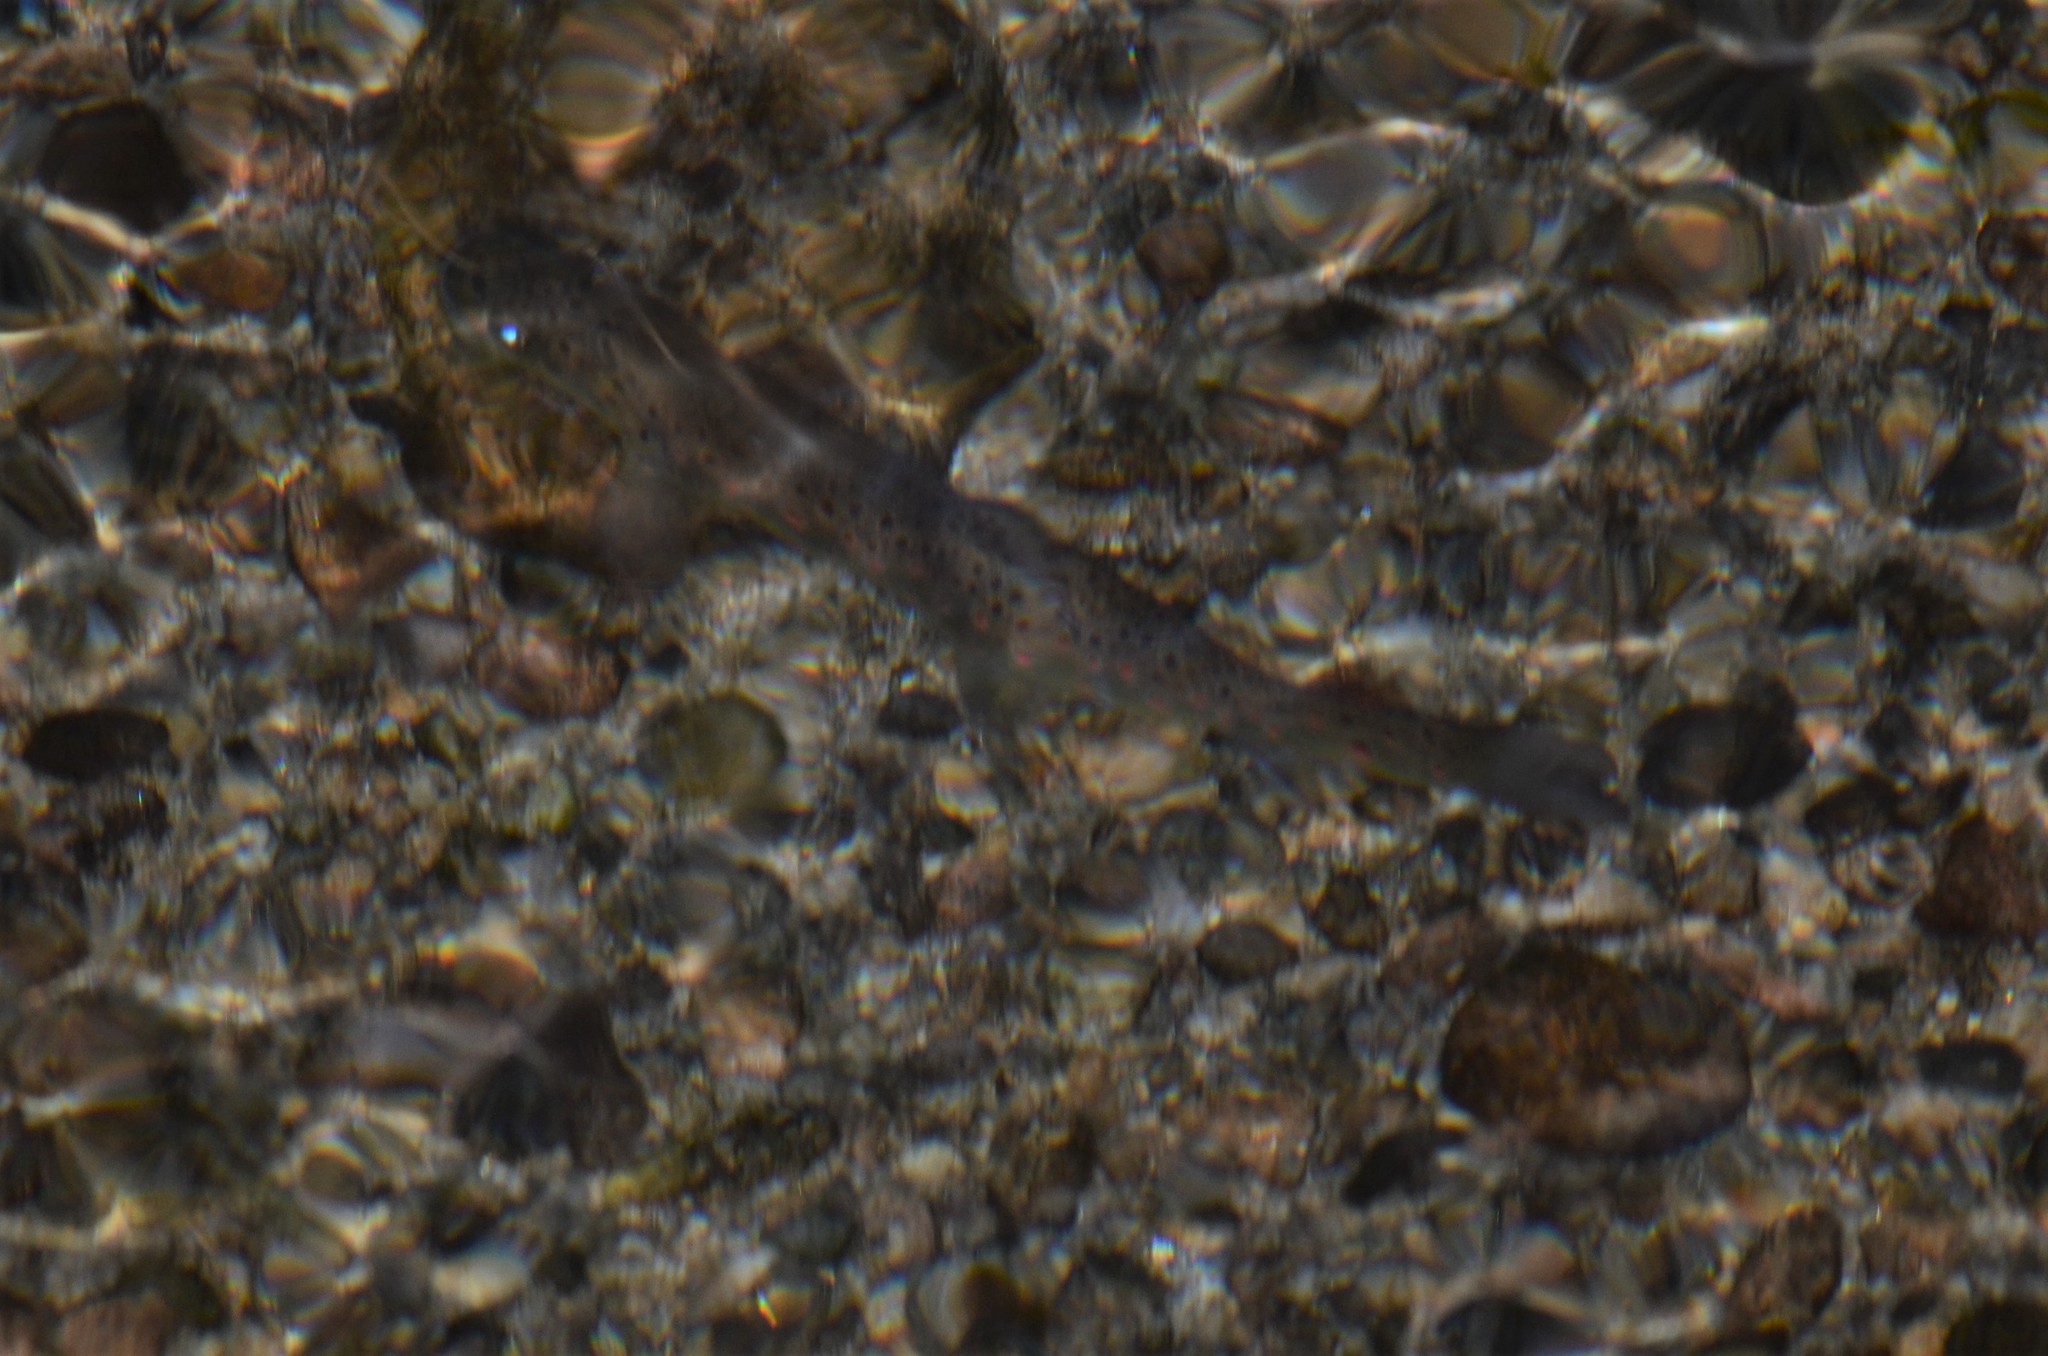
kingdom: Animalia
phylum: Chordata
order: Salmoniformes
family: Salmonidae
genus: Salmo
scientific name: Salmo trutta
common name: Brown trout
